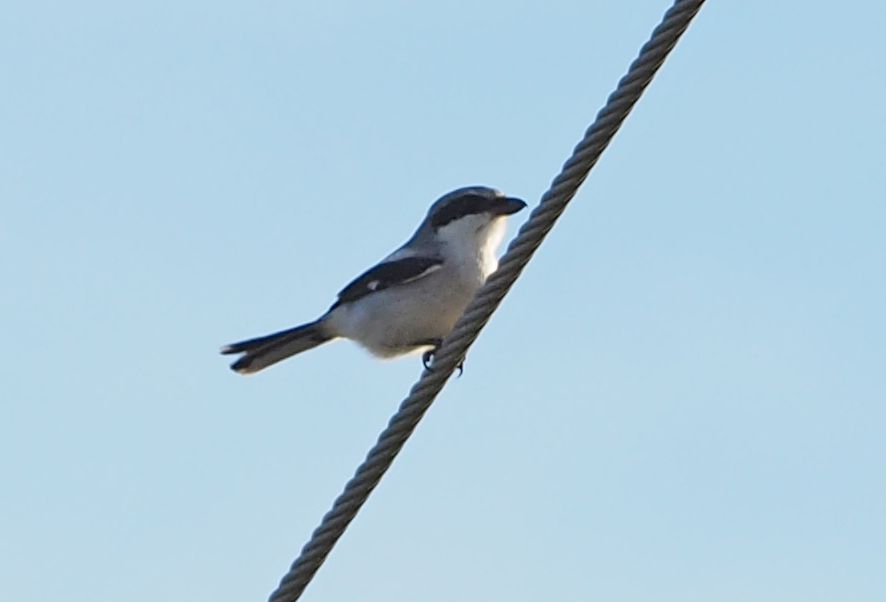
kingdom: Animalia
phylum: Chordata
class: Aves
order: Passeriformes
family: Laniidae
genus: Lanius
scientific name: Lanius ludovicianus
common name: Loggerhead shrike
